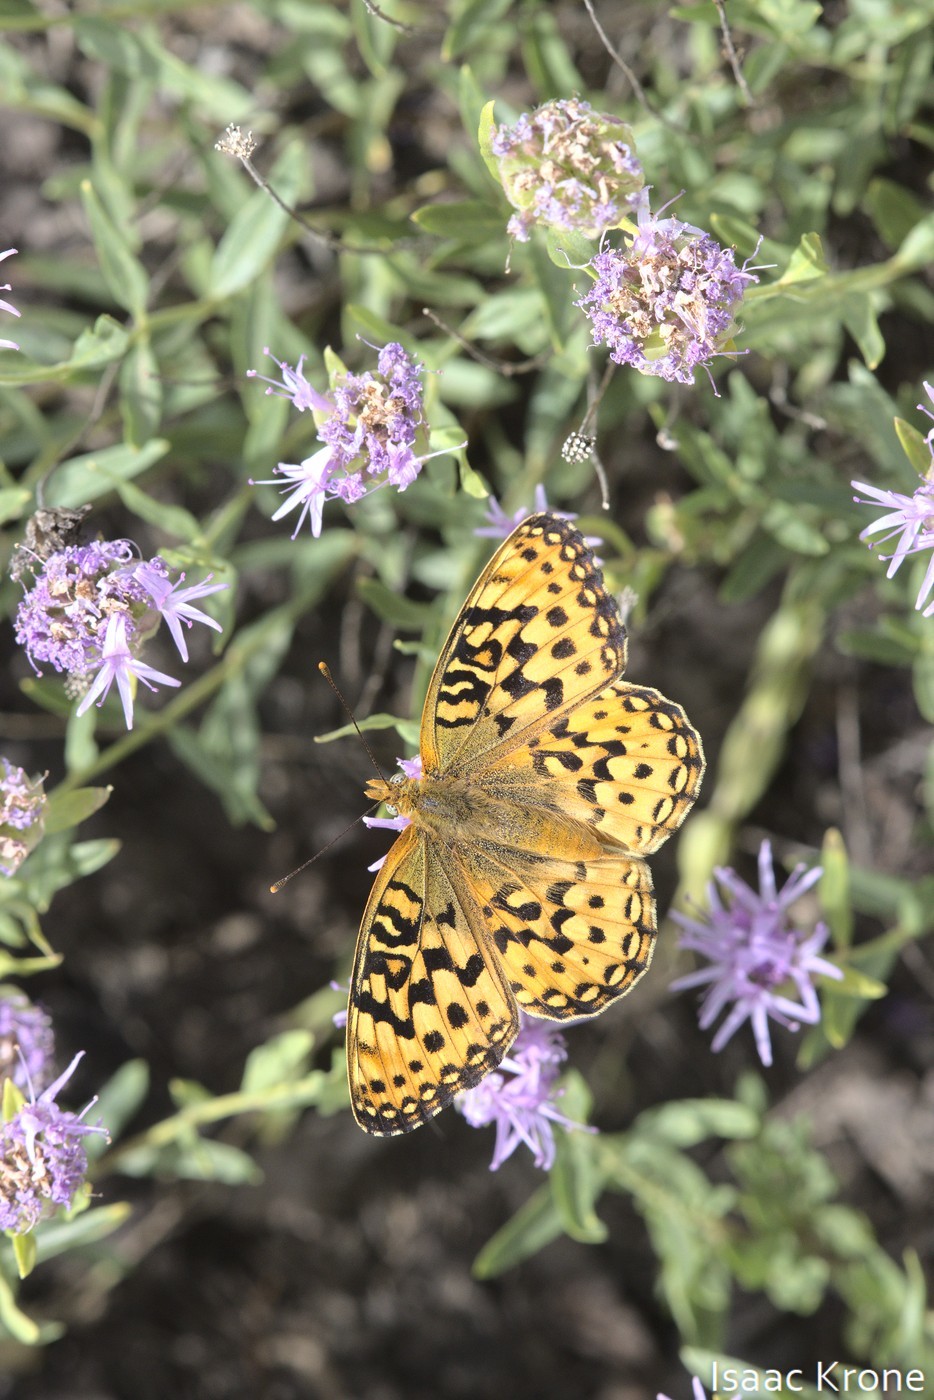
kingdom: Animalia
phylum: Arthropoda
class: Insecta
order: Lepidoptera
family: Nymphalidae
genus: Speyeria
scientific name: Speyeria mormonia
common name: Mormon fritillary
